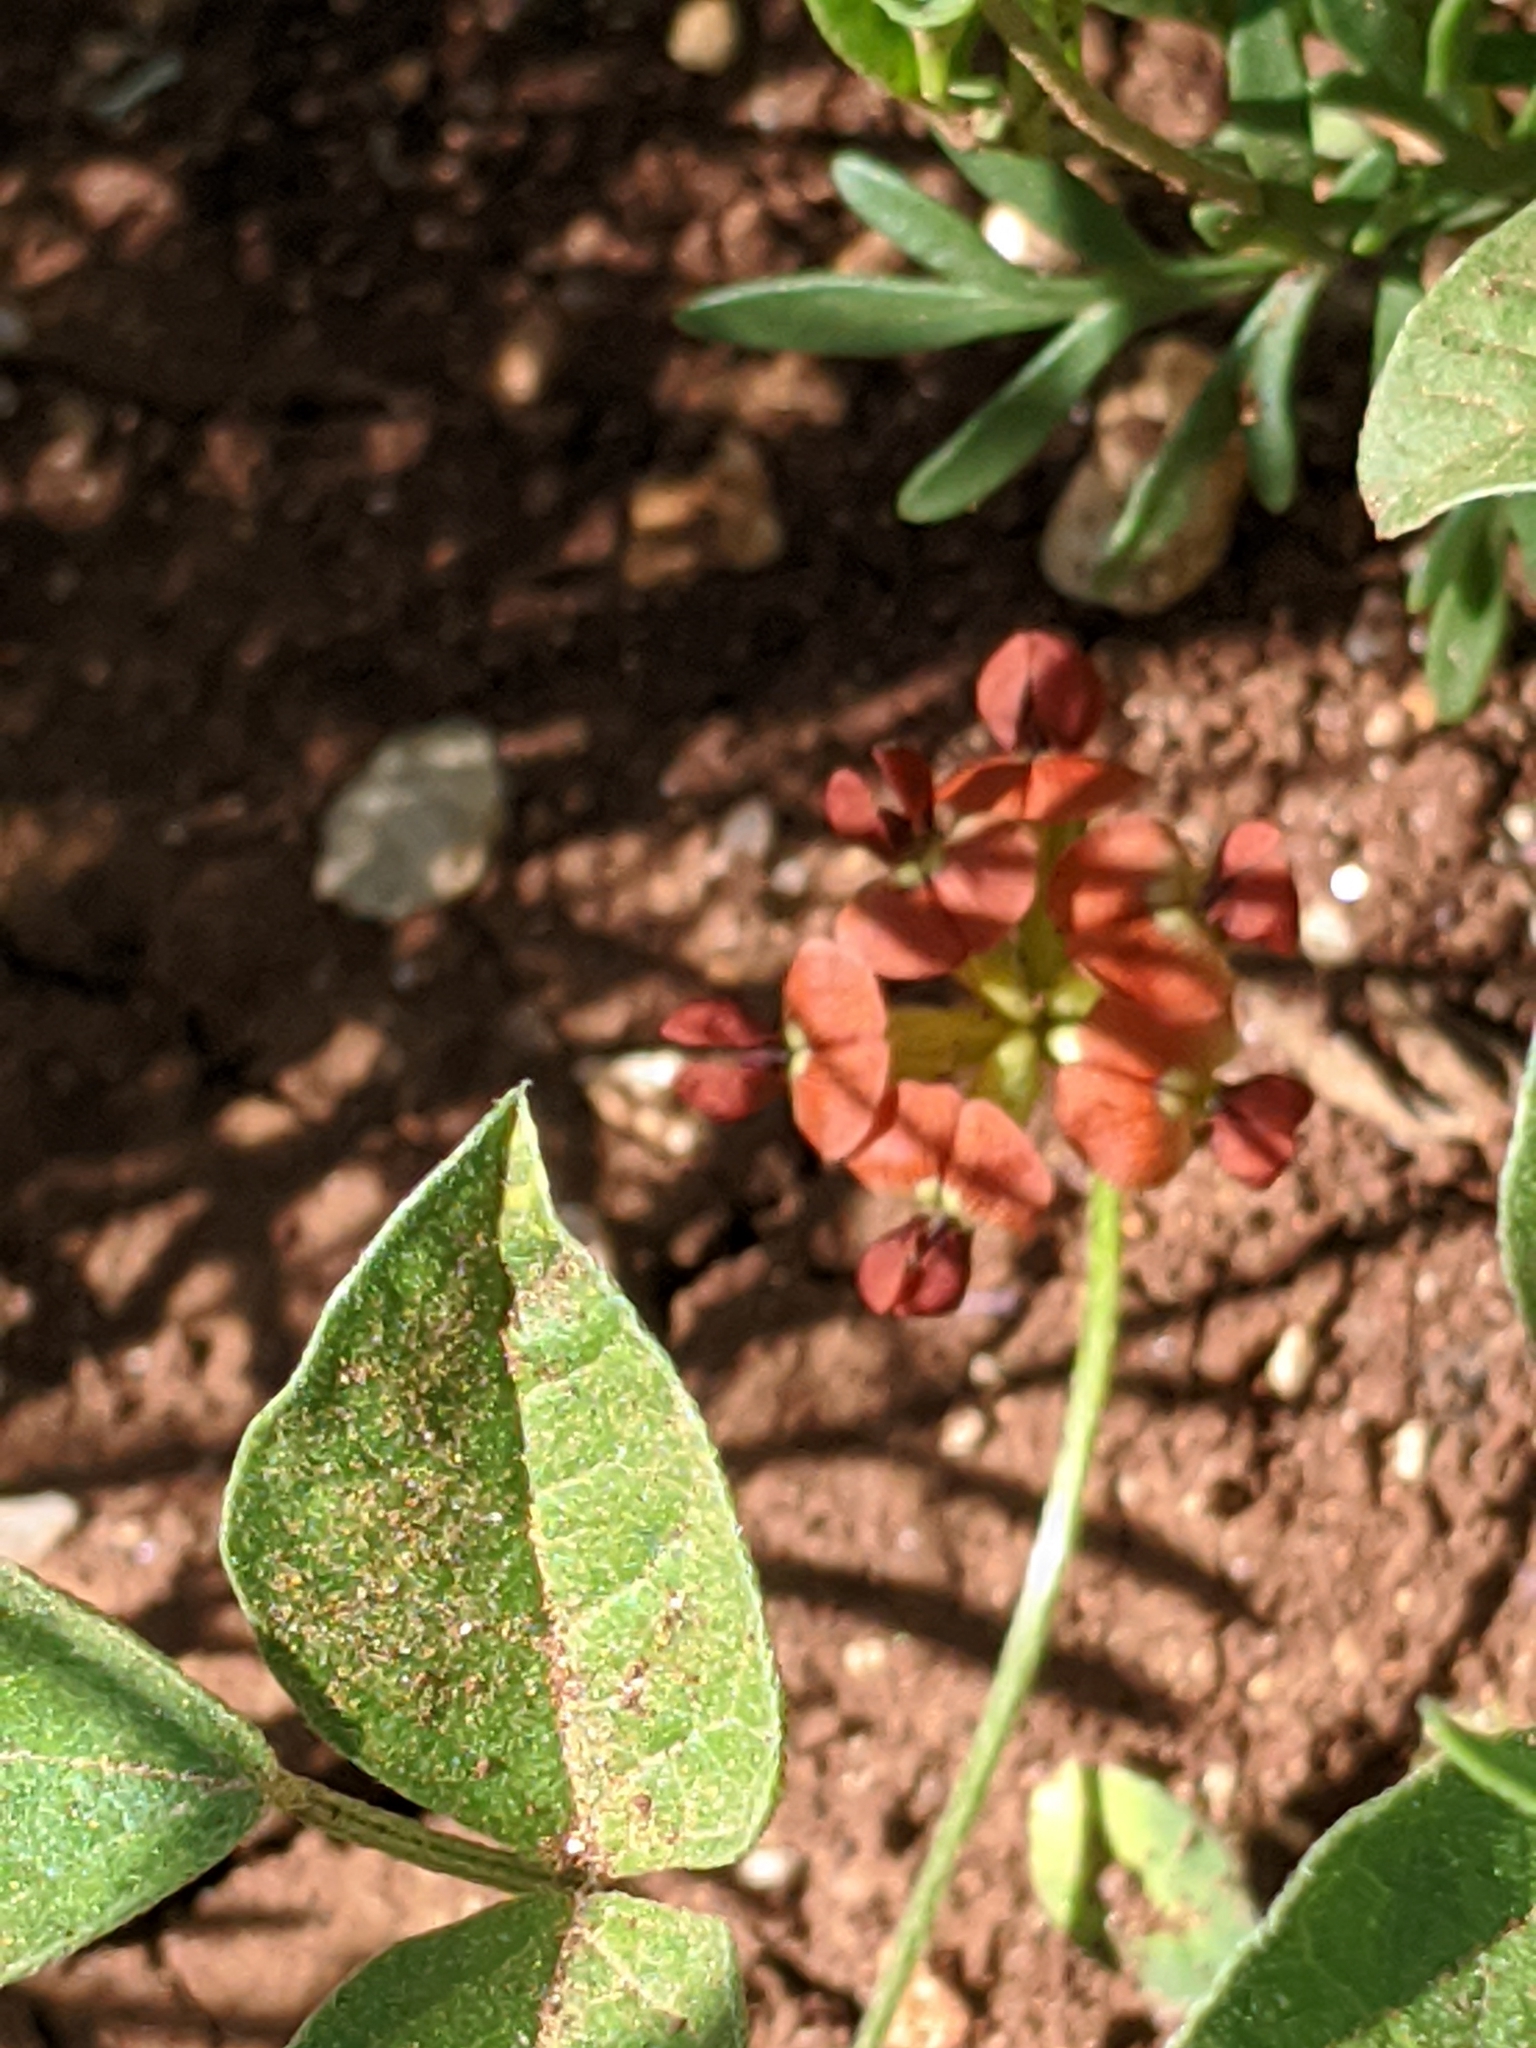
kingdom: Plantae
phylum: Tracheophyta
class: Magnoliopsida
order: Fabales
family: Fabaceae
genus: Pediomelum
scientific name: Pediomelum rhombifolium
